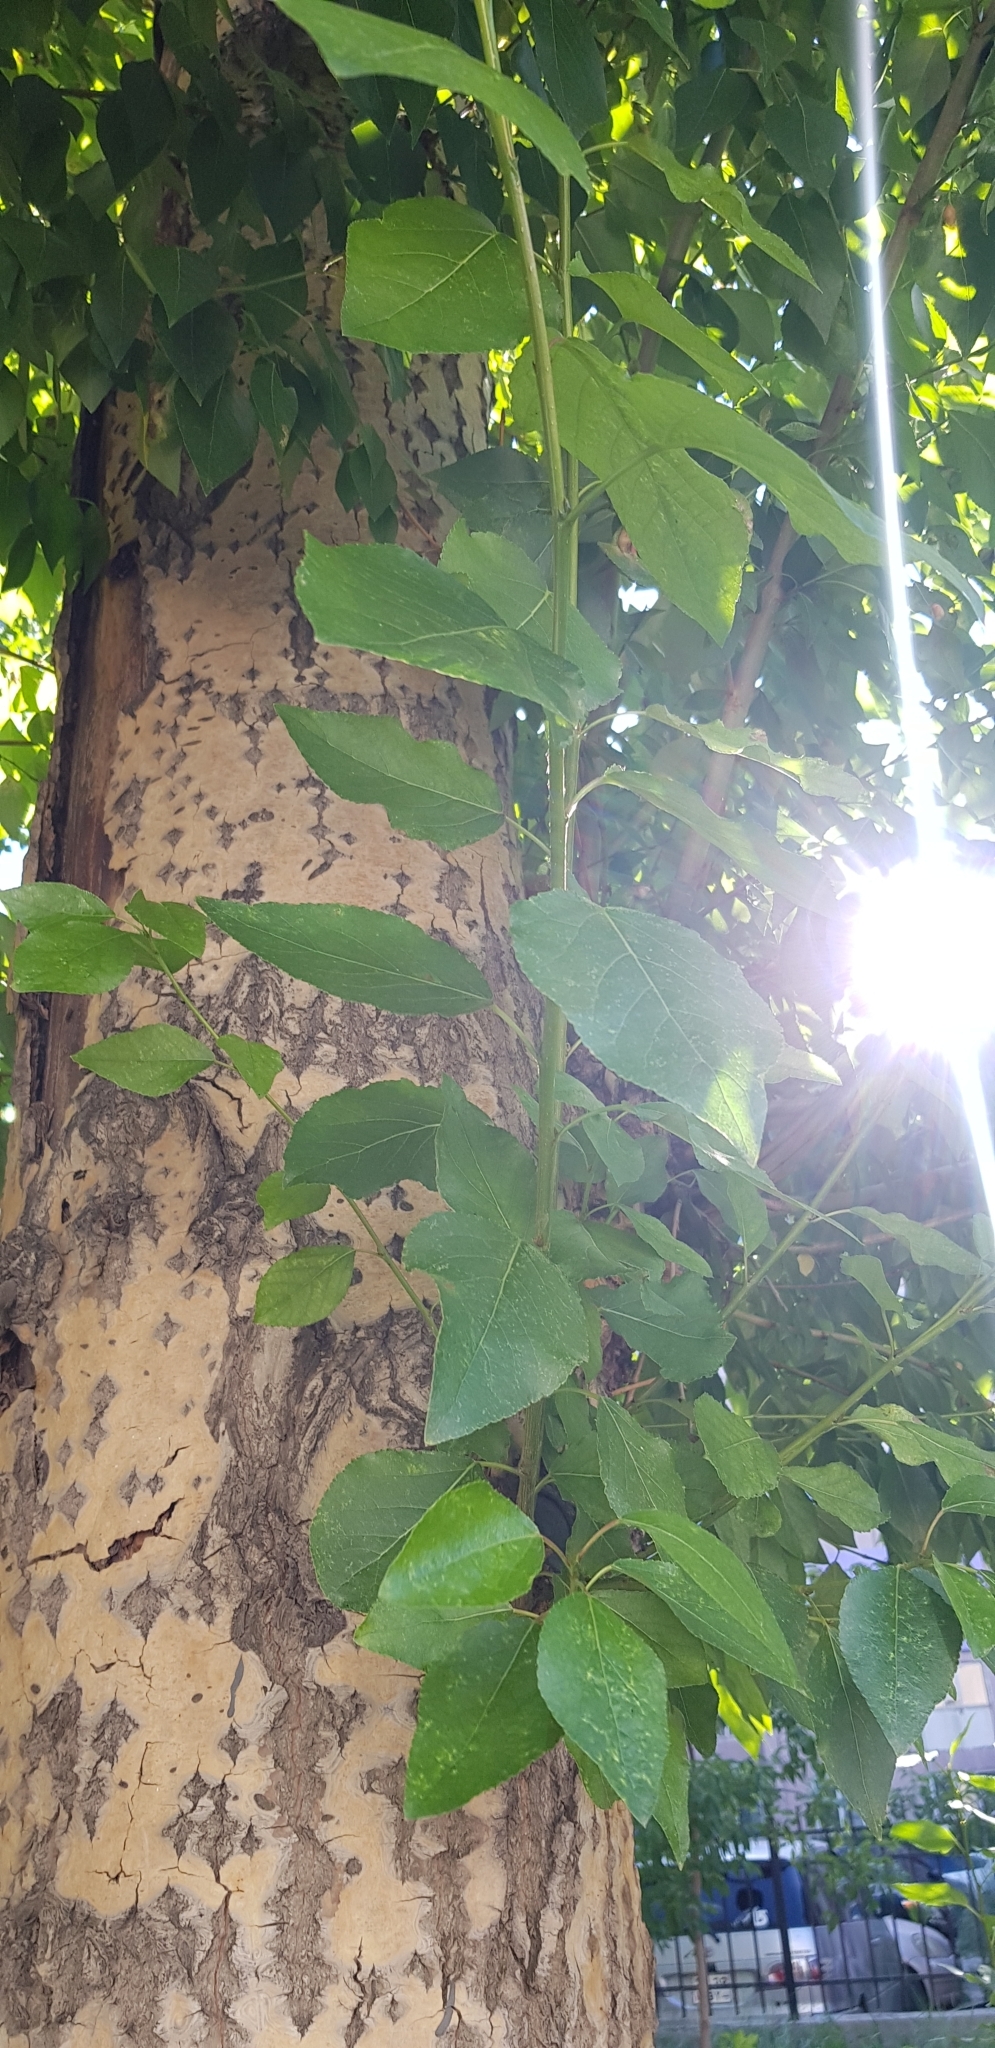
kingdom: Plantae
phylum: Tracheophyta
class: Magnoliopsida
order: Malpighiales
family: Salicaceae
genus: Populus
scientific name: Populus balsamifera
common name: Balsam poplar
